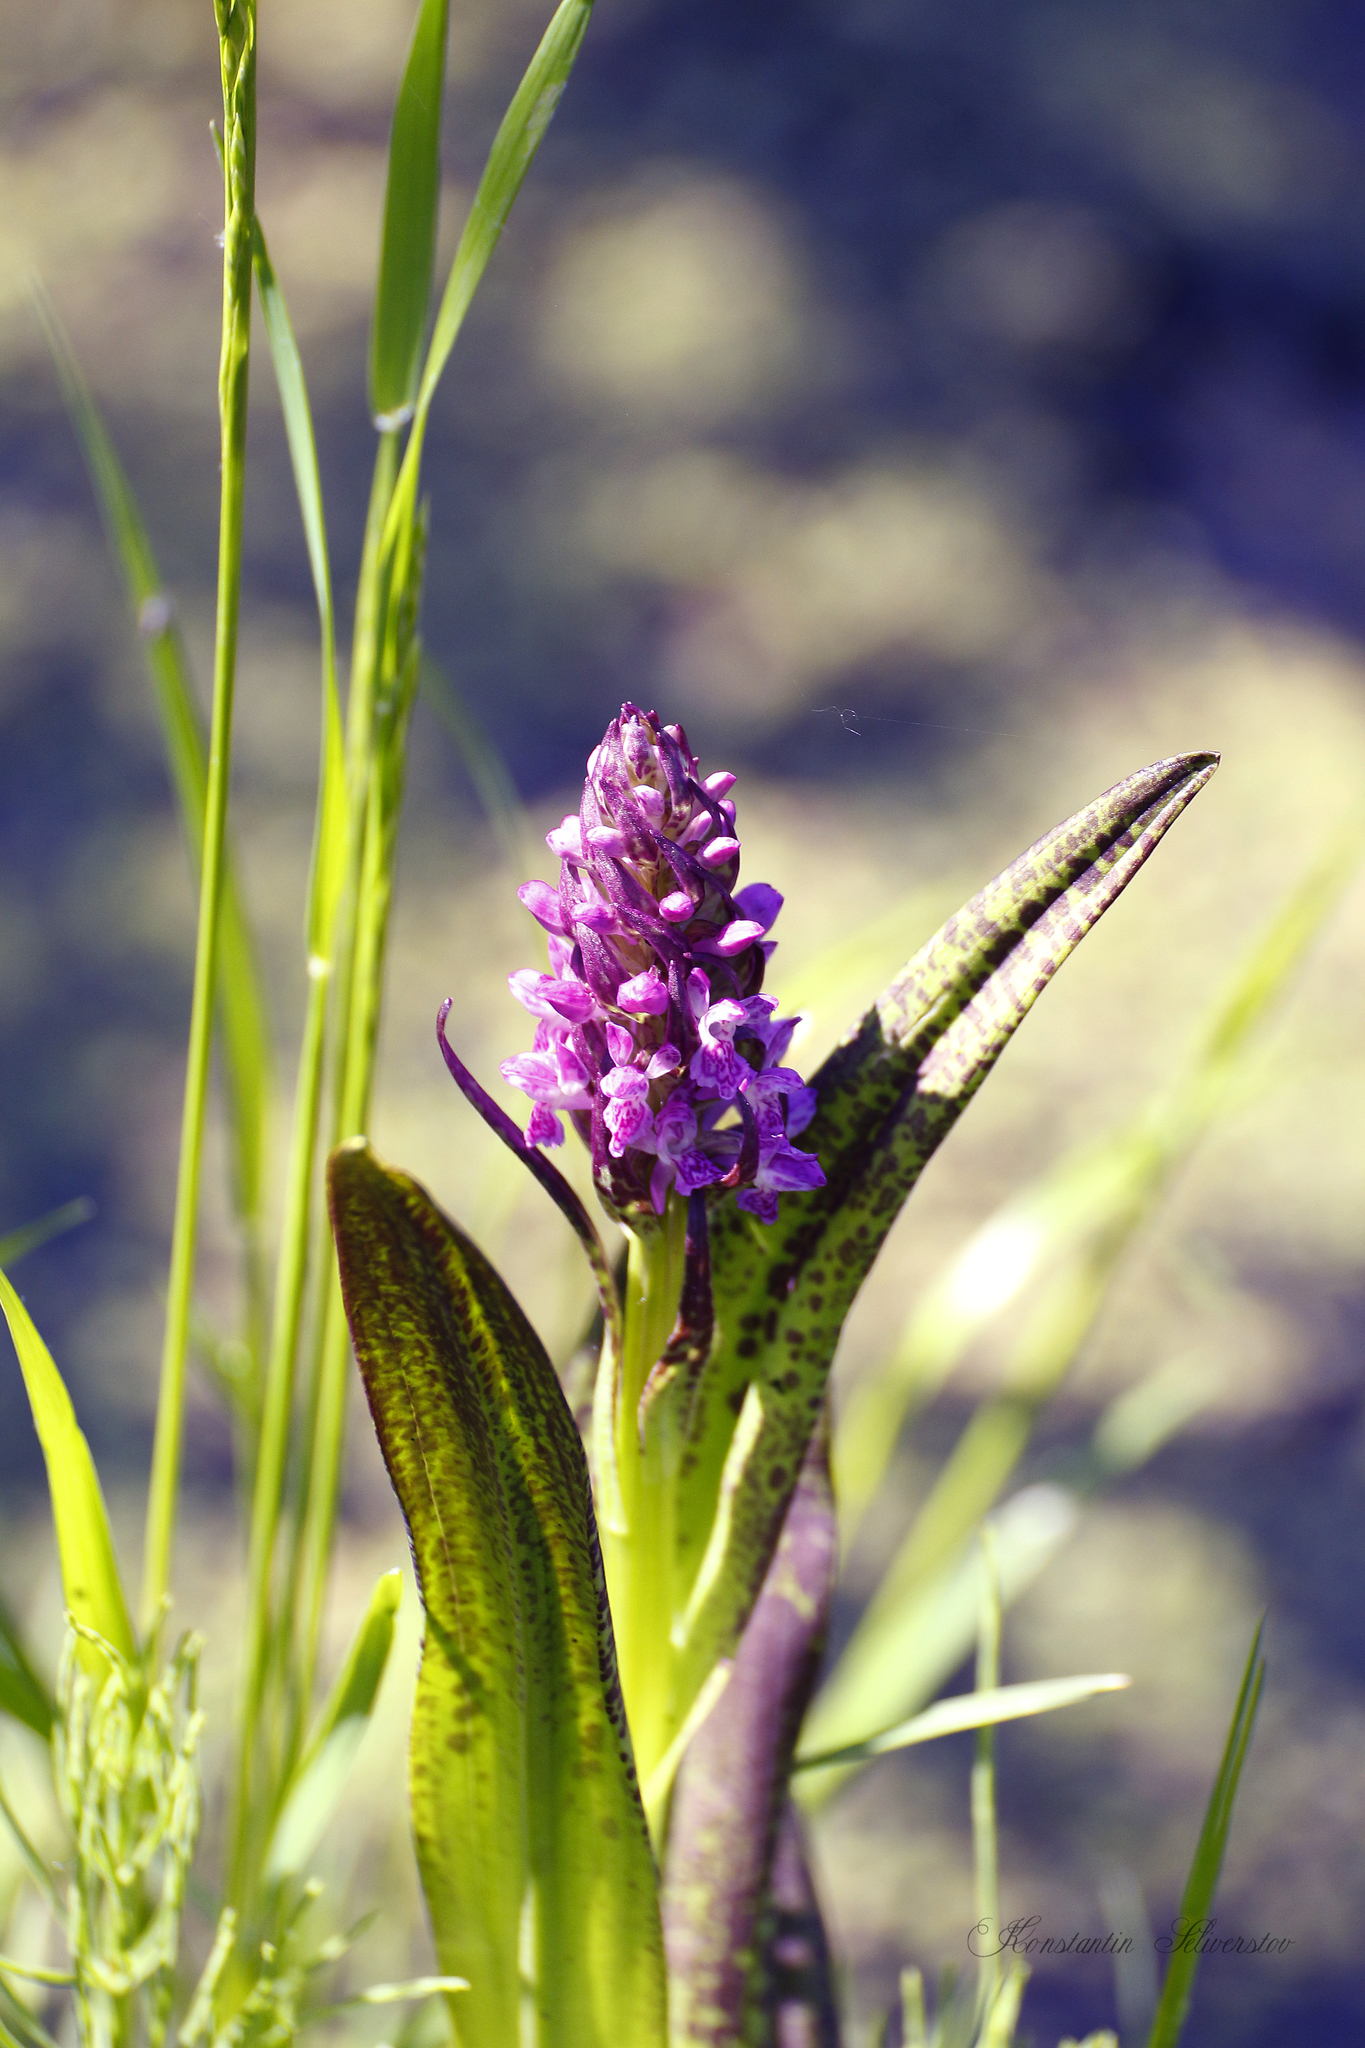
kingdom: Plantae
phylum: Tracheophyta
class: Liliopsida
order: Asparagales
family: Orchidaceae
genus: Dactylorhiza
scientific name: Dactylorhiza incarnata
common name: Early marsh-orchid
